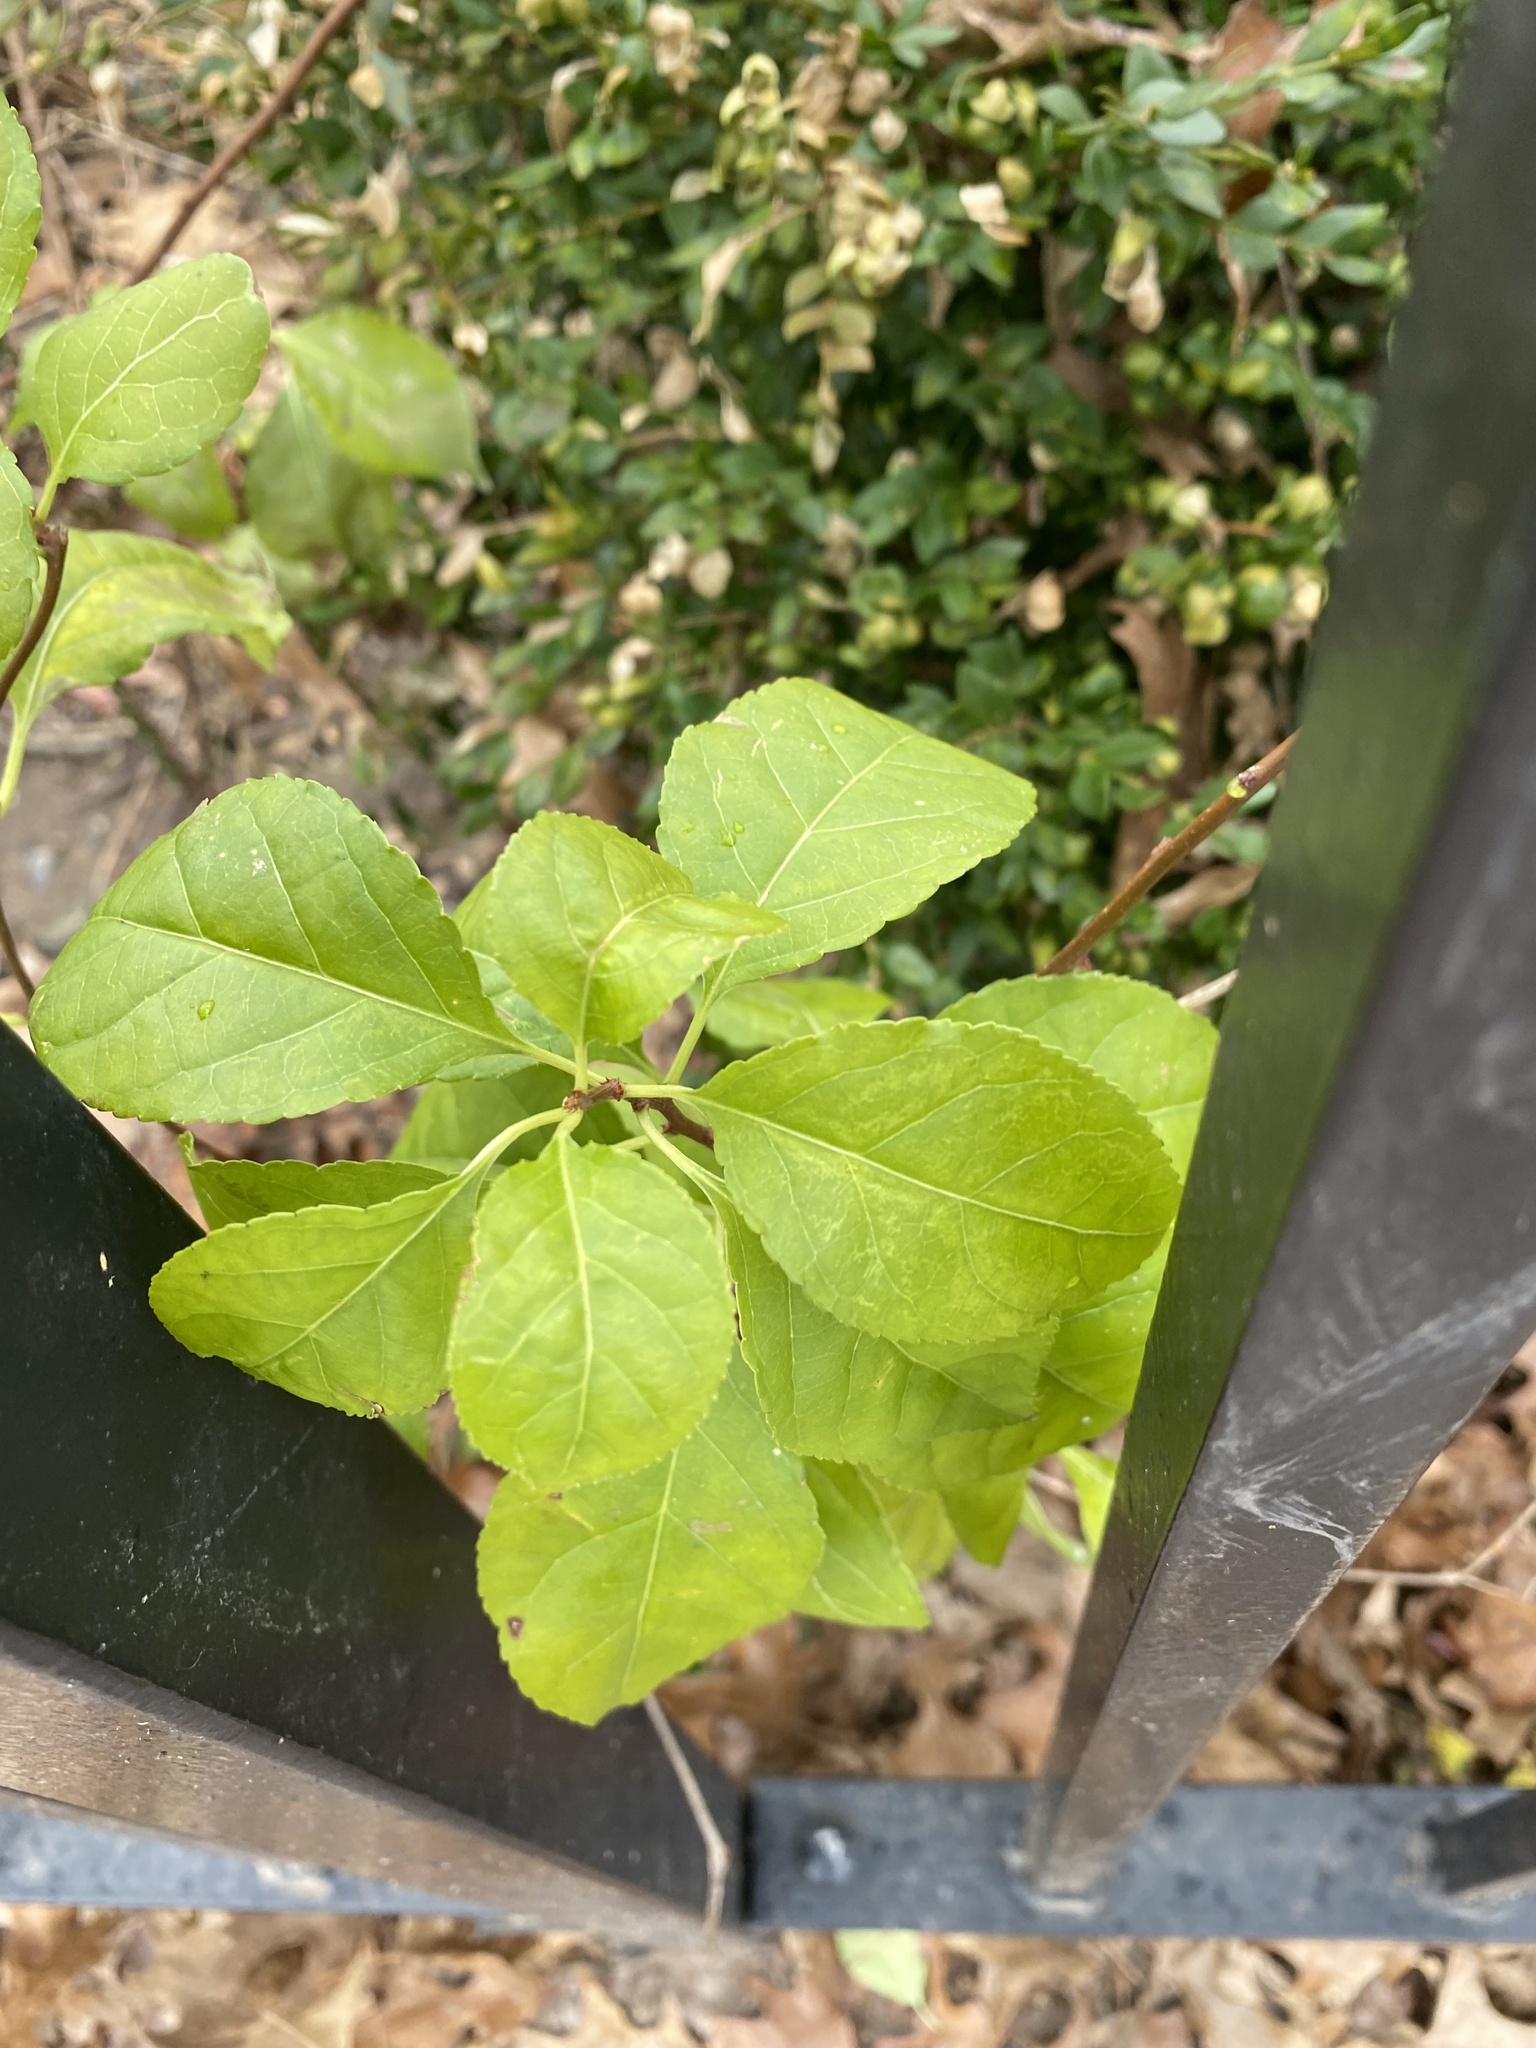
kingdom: Plantae
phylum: Tracheophyta
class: Magnoliopsida
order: Celastrales
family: Celastraceae
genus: Celastrus
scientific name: Celastrus orbiculatus
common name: Oriental bittersweet
